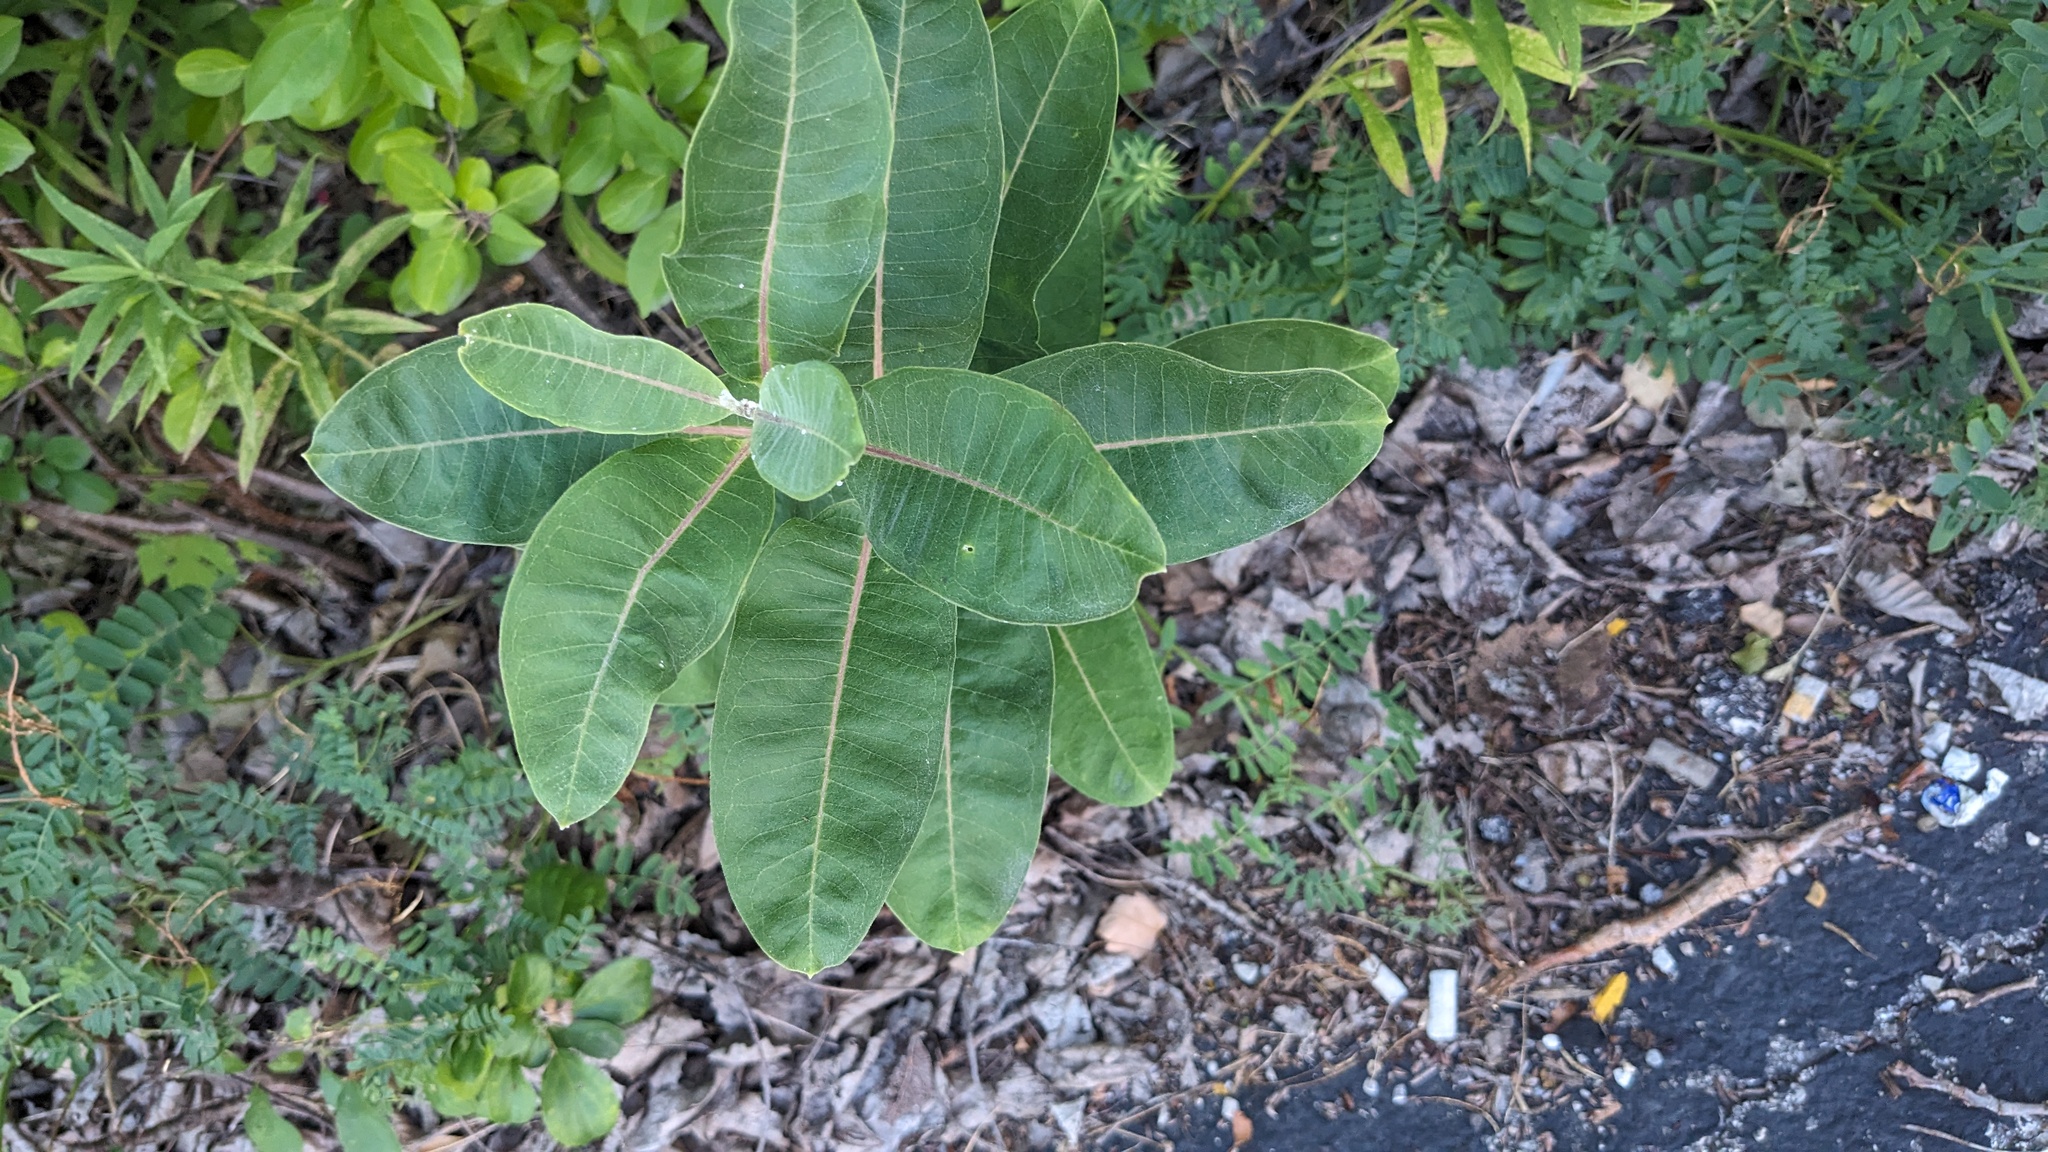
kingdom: Plantae
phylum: Tracheophyta
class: Magnoliopsida
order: Gentianales
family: Apocynaceae
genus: Asclepias
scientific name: Asclepias syriaca
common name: Common milkweed
